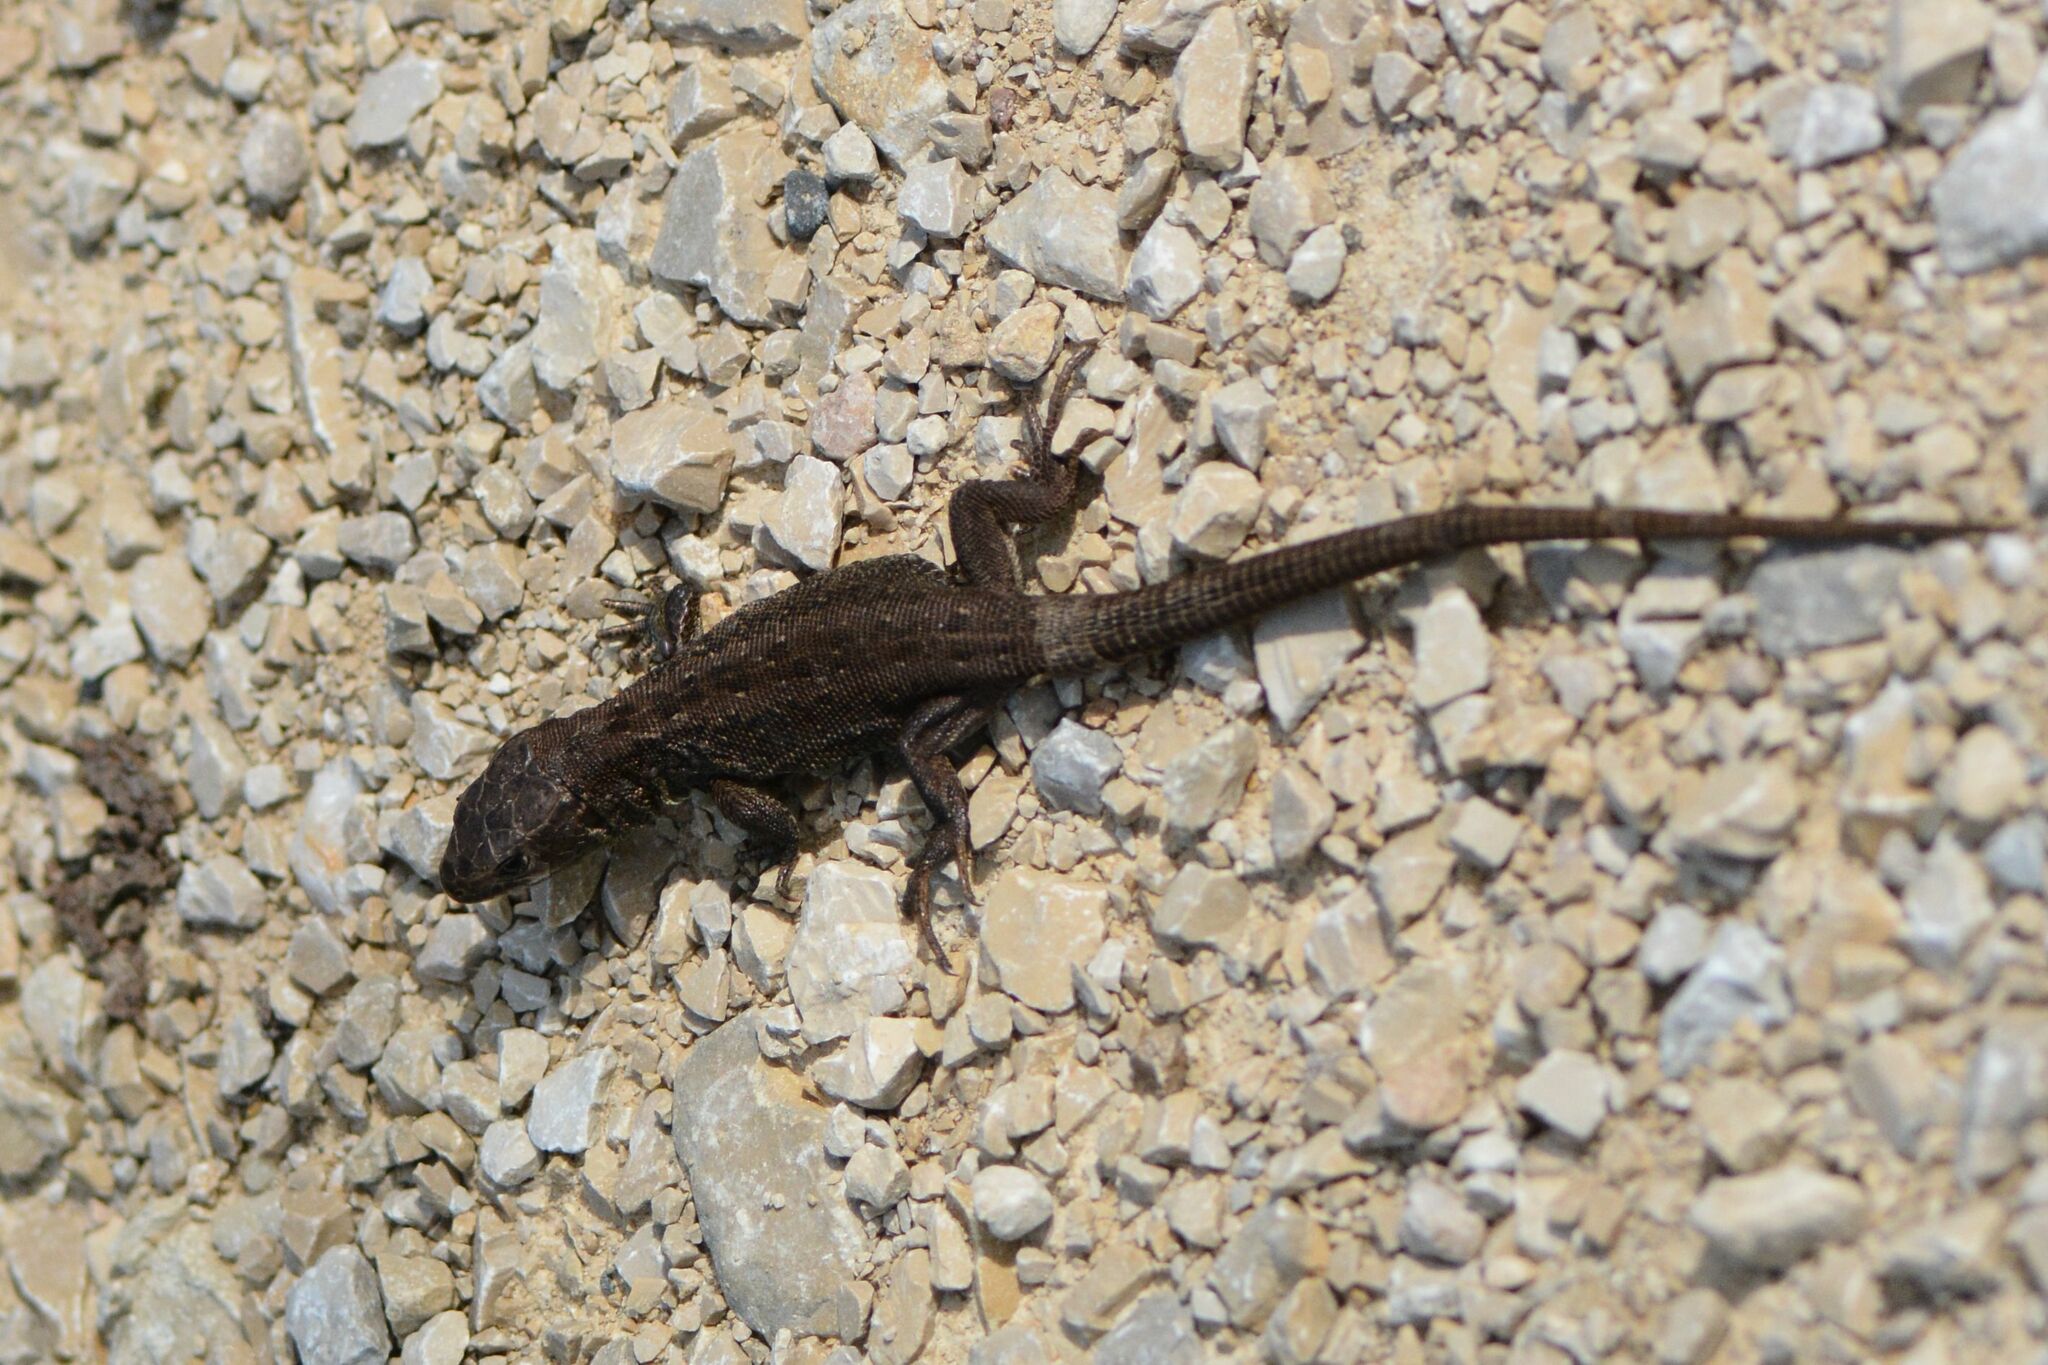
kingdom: Animalia
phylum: Chordata
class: Squamata
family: Lacertidae
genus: Lacerta
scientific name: Lacerta agilis
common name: Sand lizard
